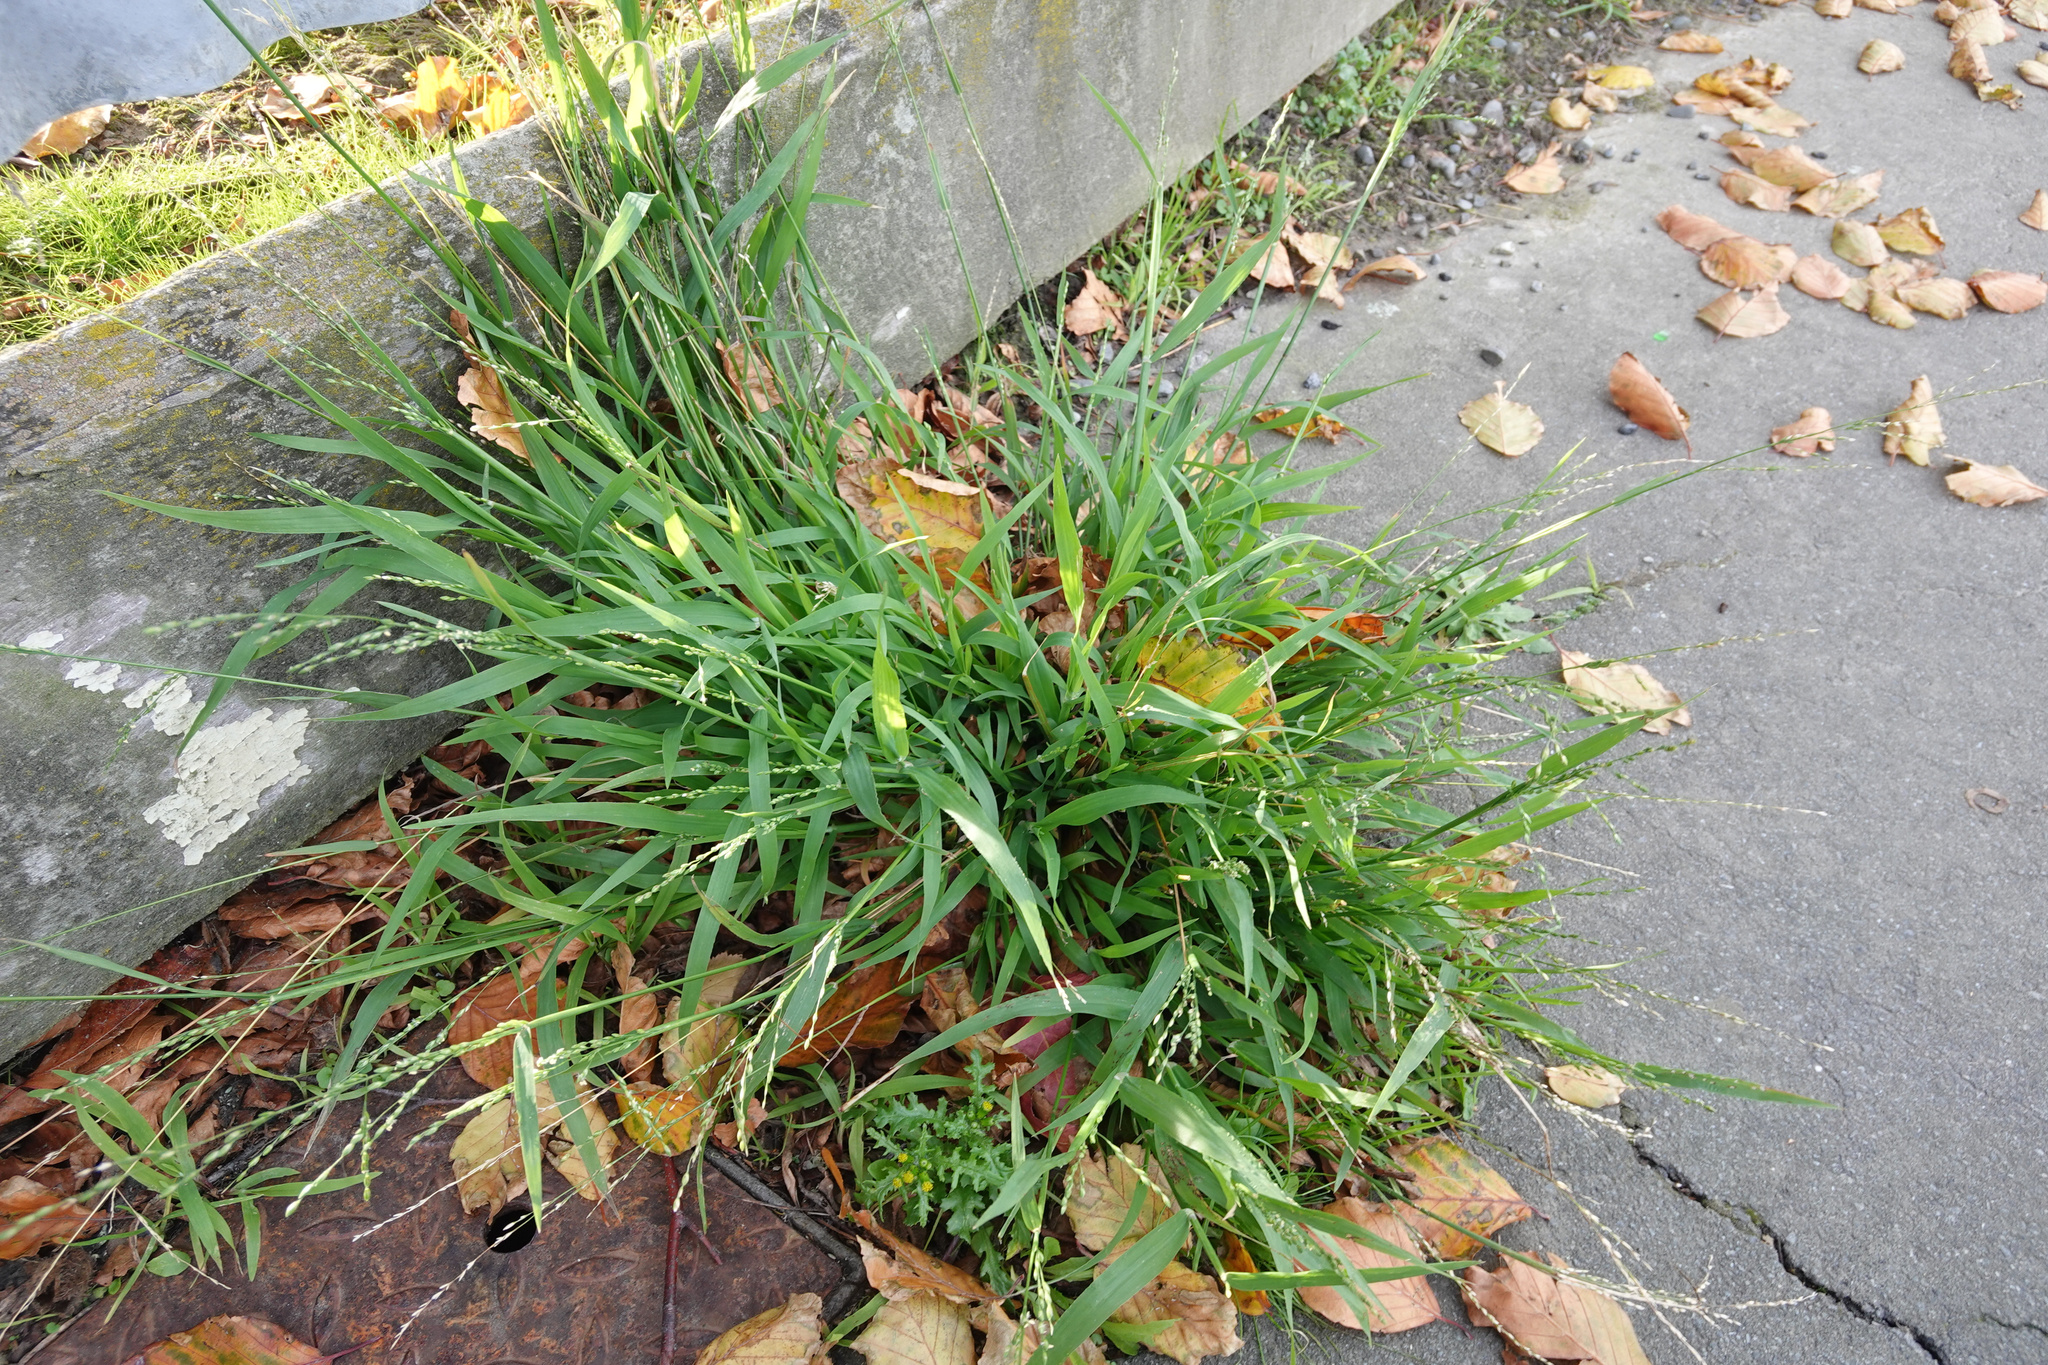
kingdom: Plantae
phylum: Tracheophyta
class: Liliopsida
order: Poales
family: Poaceae
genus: Ehrharta
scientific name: Ehrharta erecta
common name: Panic veldtgrass
